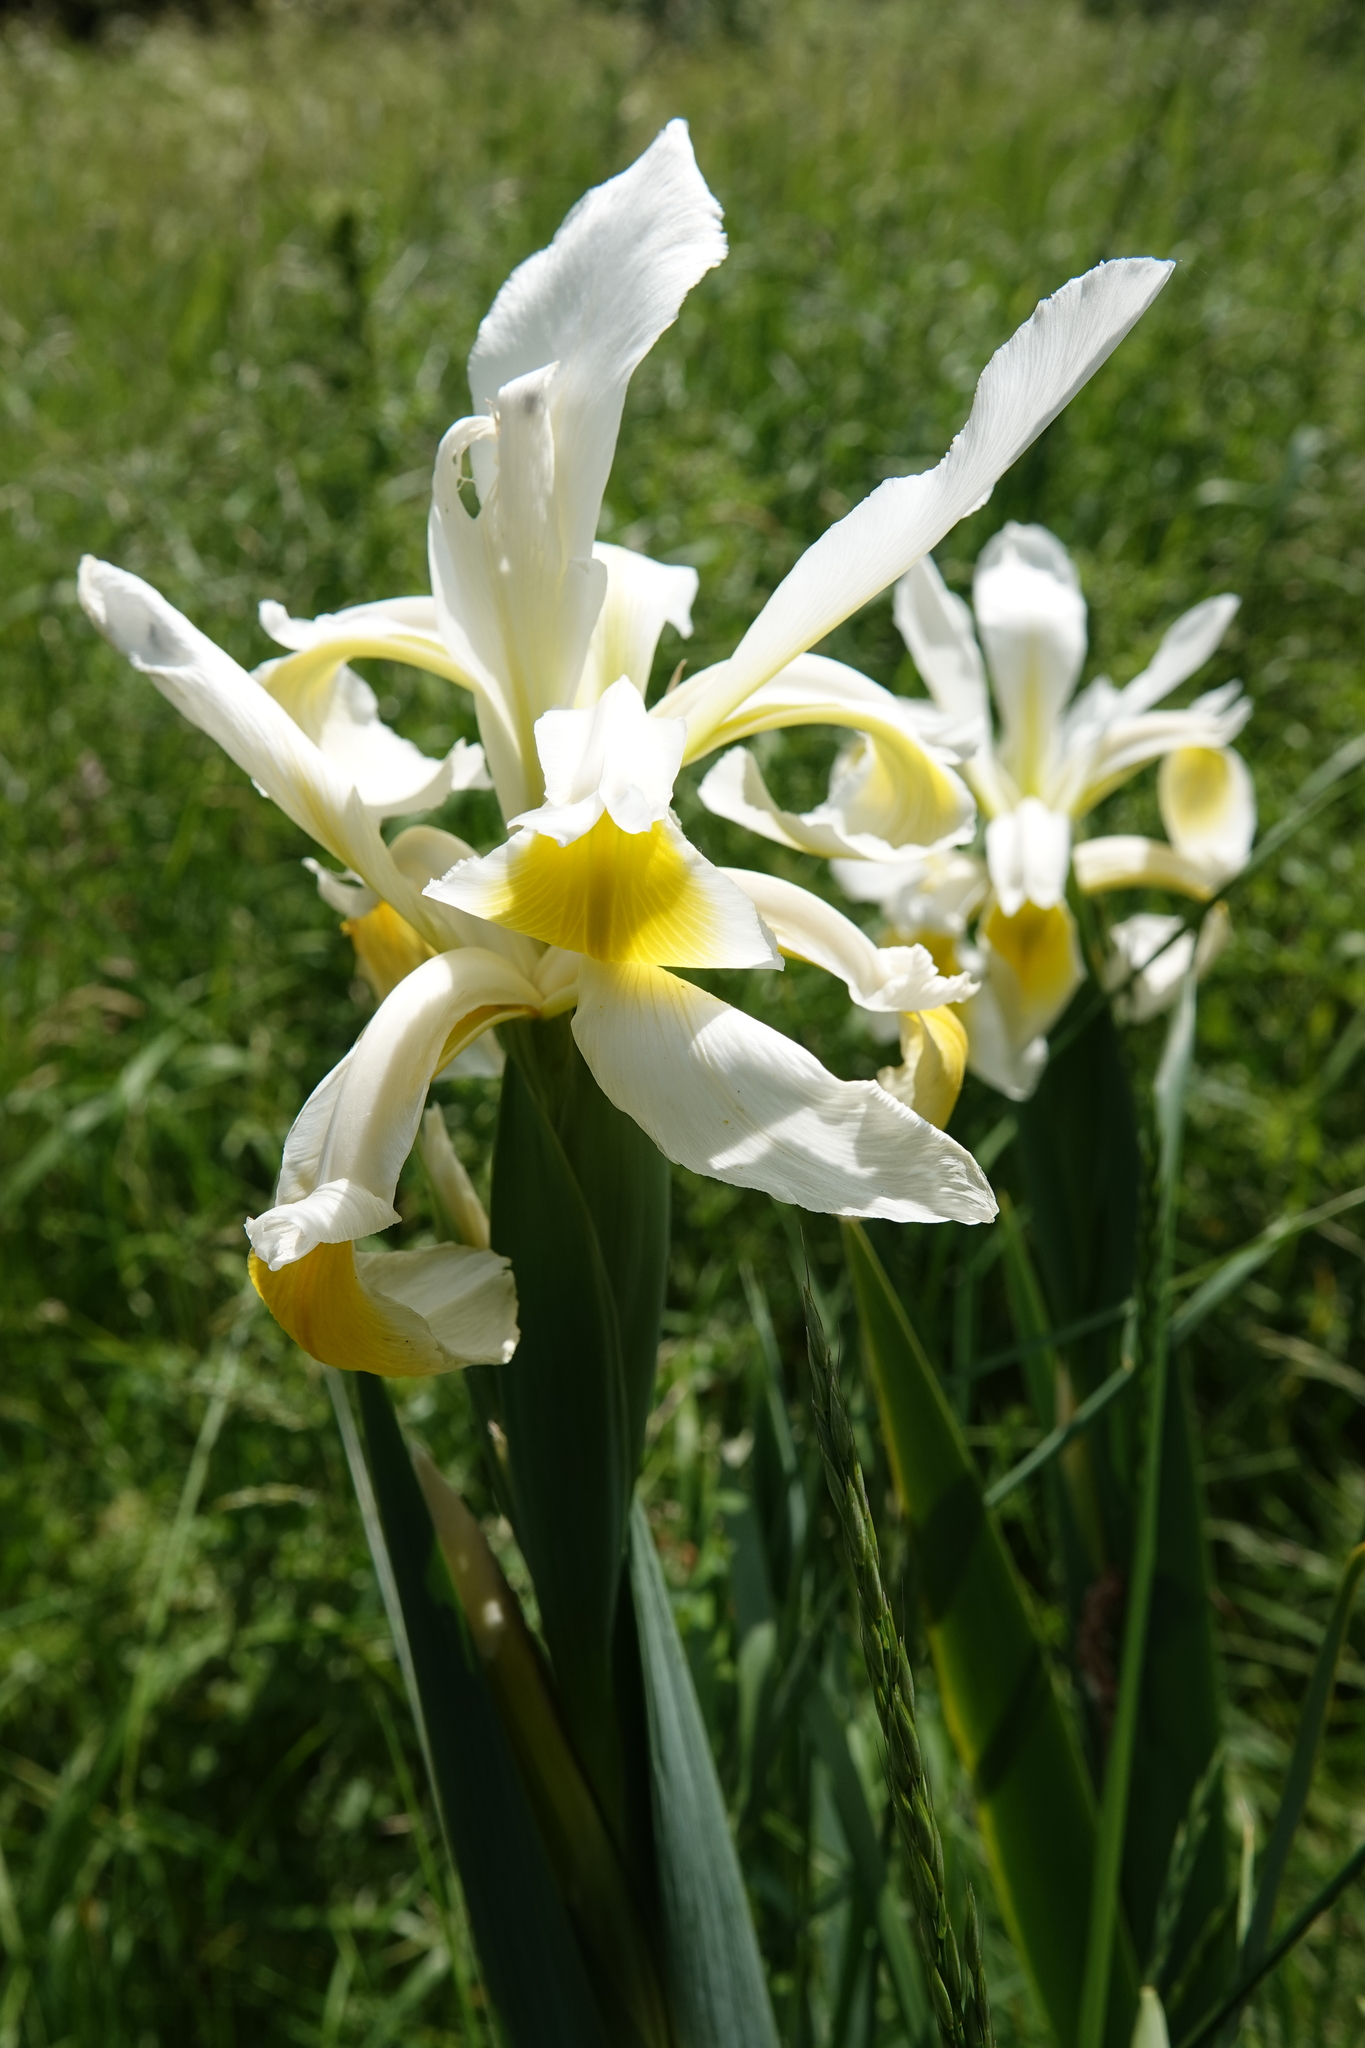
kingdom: Plantae
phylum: Tracheophyta
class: Liliopsida
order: Asparagales
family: Iridaceae
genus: Iris
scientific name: Iris orientalis
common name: Turkish iris
